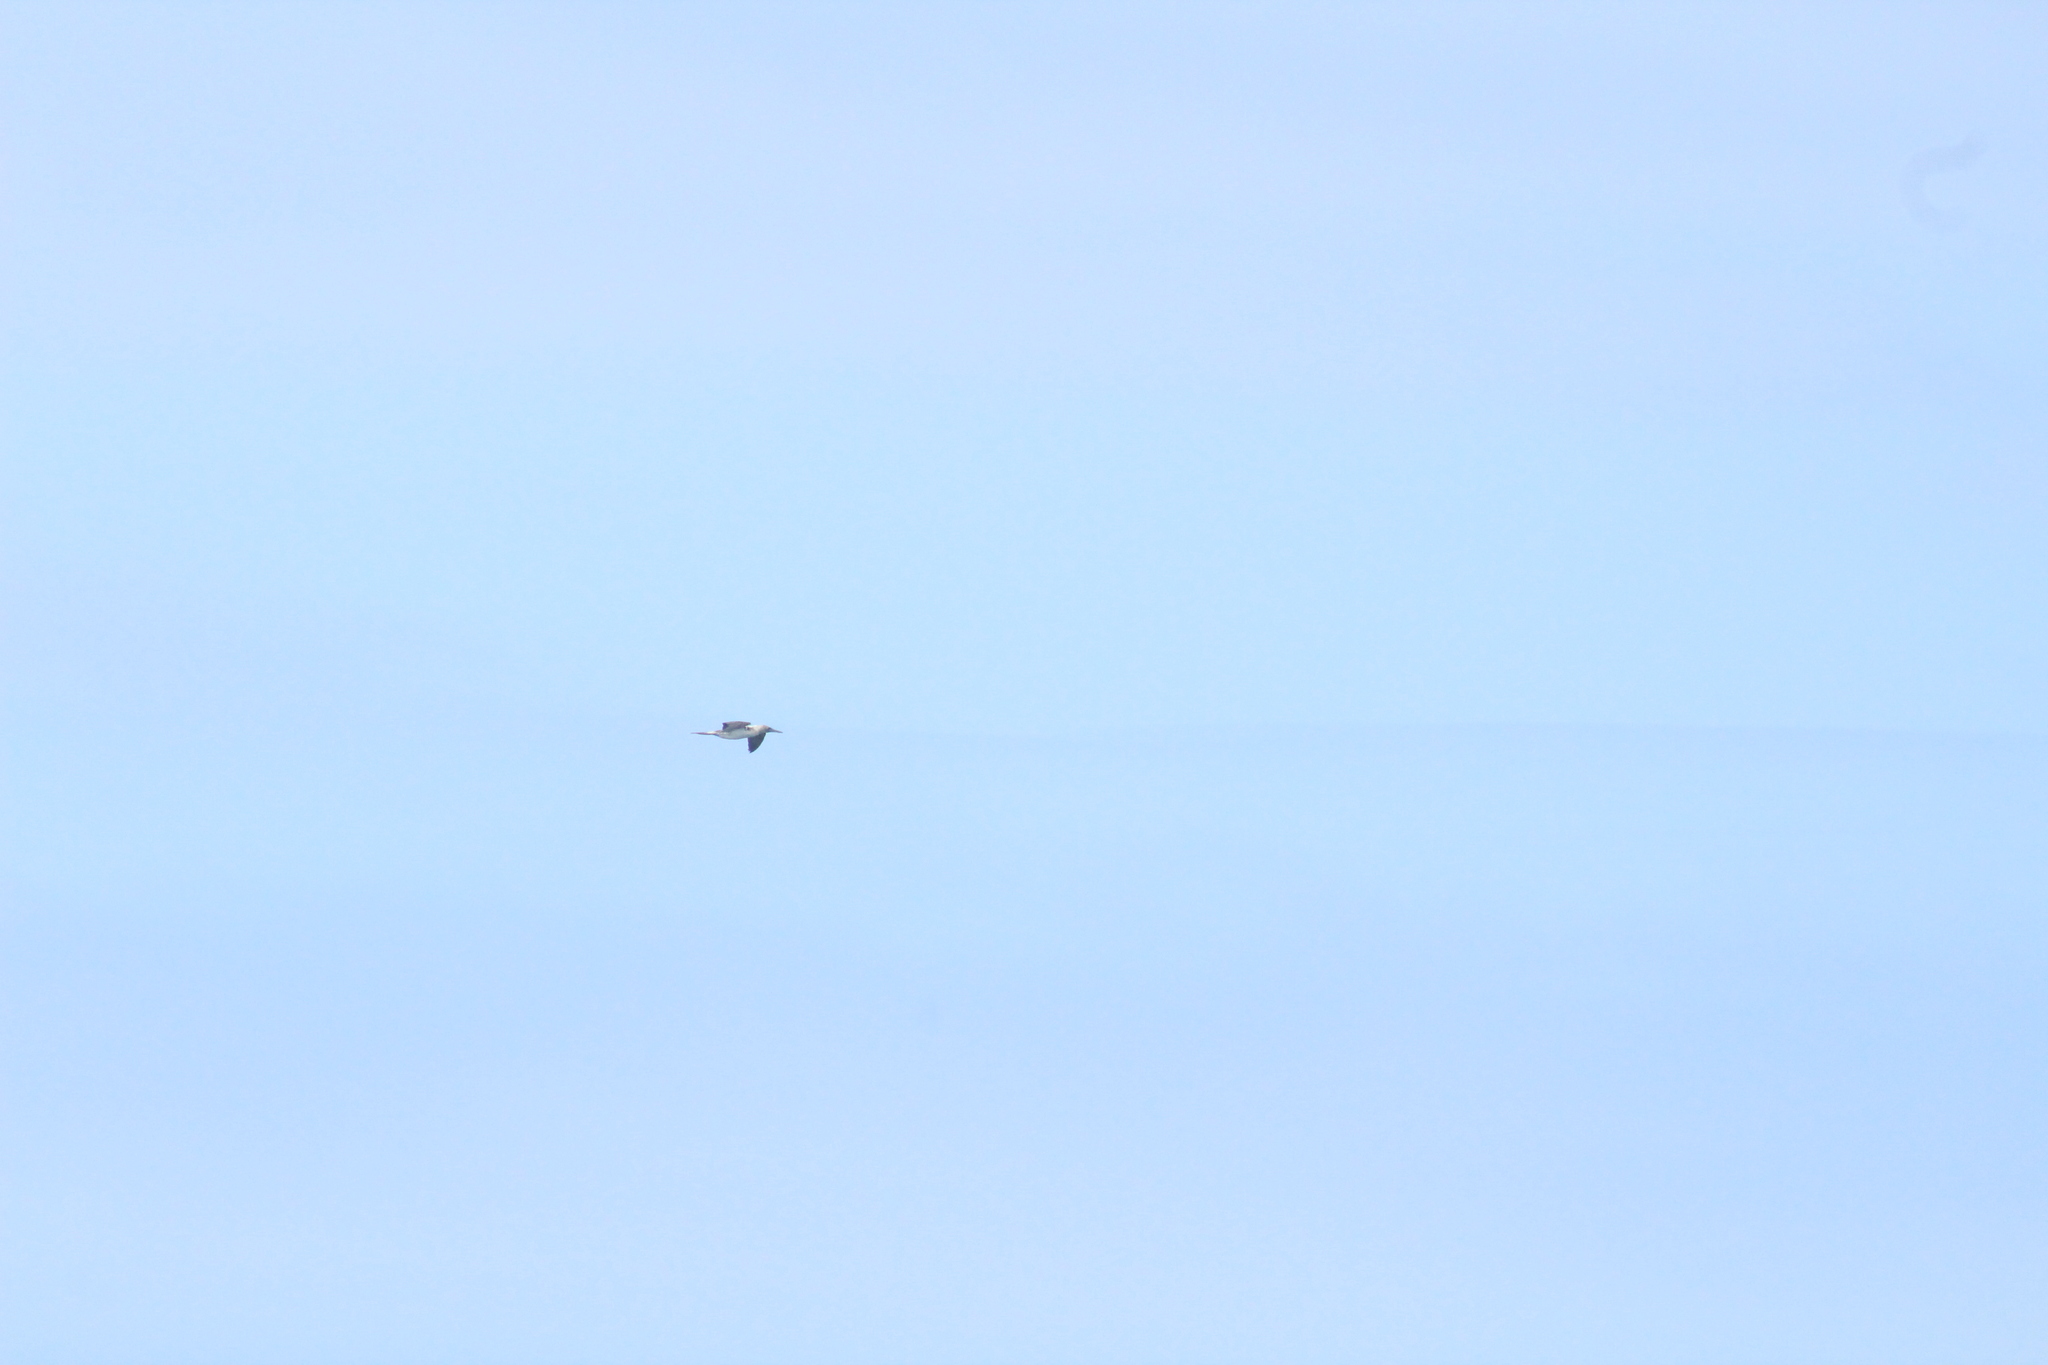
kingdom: Animalia
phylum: Chordata
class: Aves
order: Suliformes
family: Sulidae
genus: Sula
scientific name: Sula nebouxii
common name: Blue-footed booby
